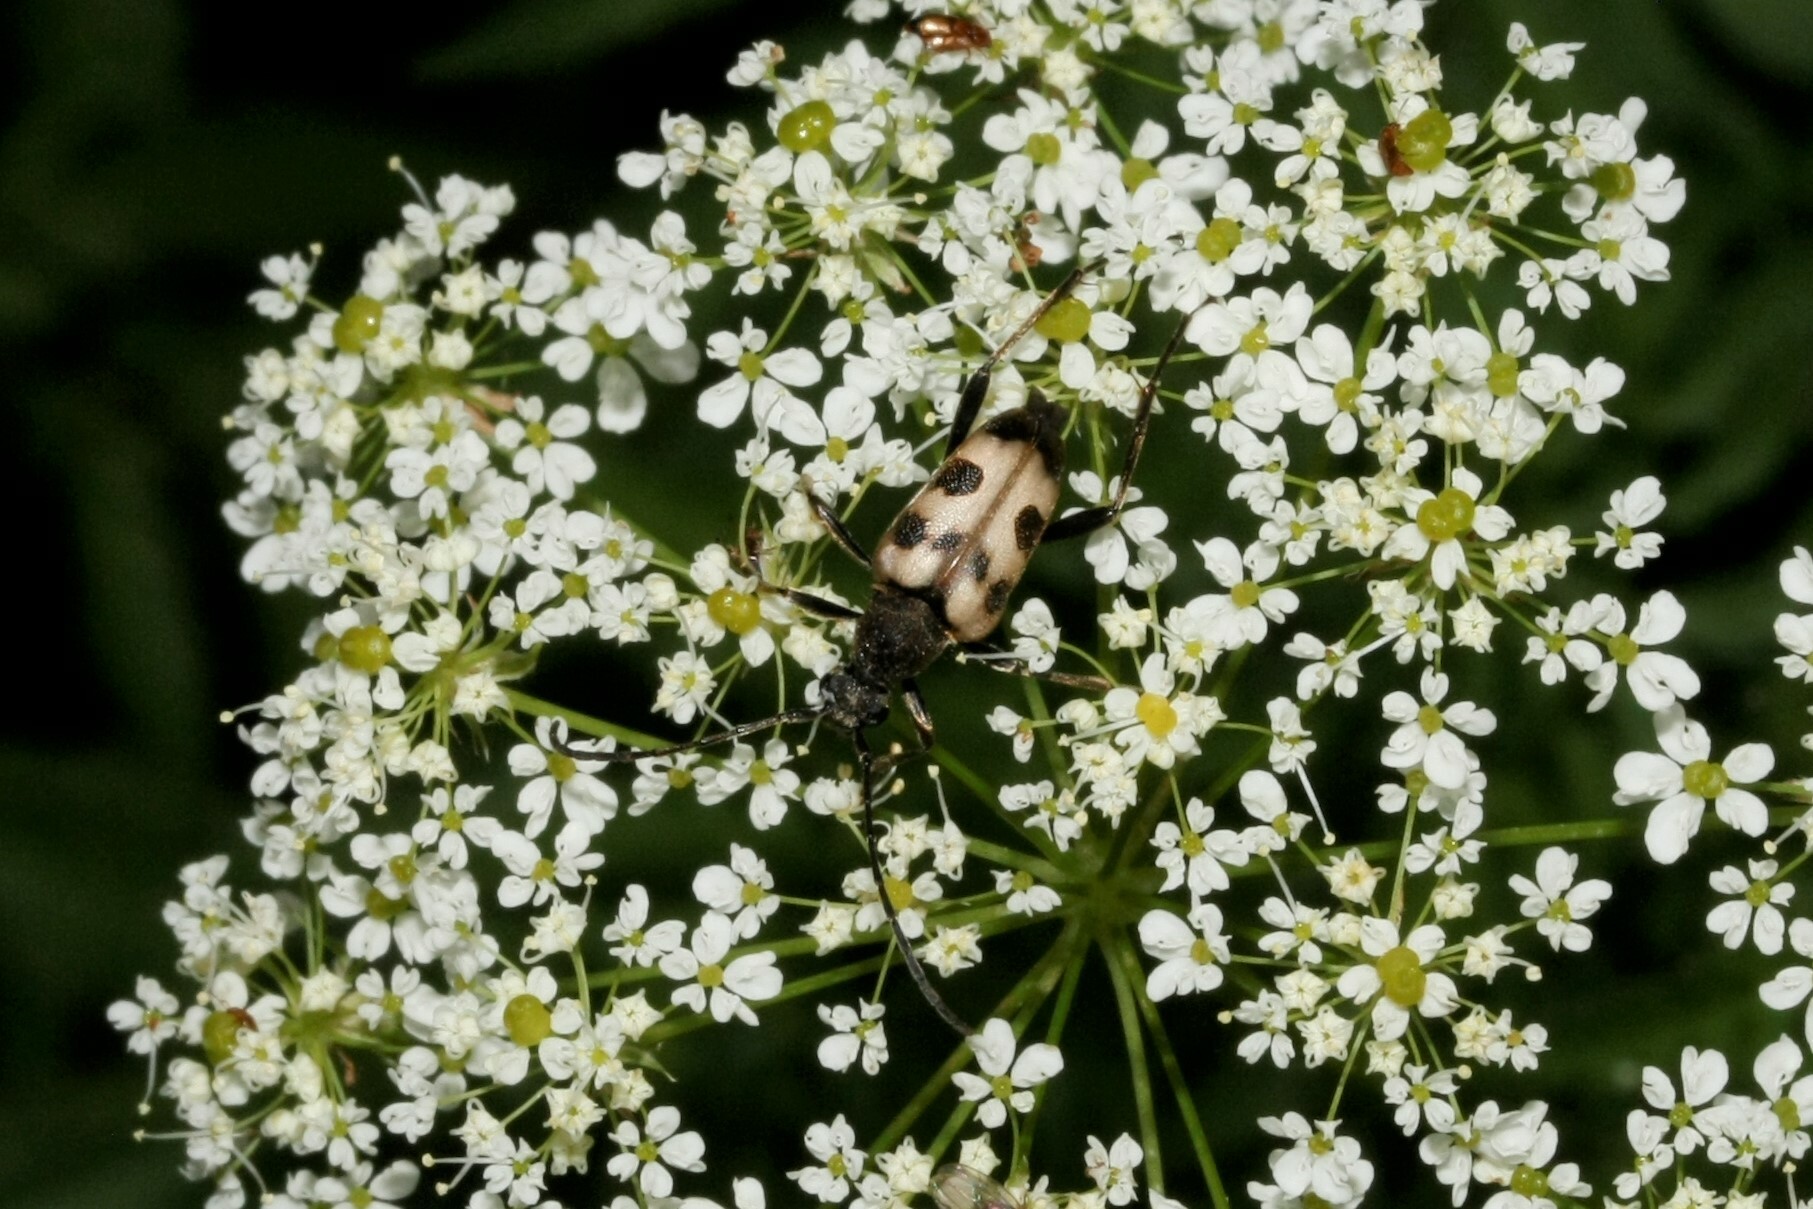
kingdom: Animalia
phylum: Arthropoda
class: Insecta
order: Coleoptera
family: Cerambycidae
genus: Pachytodes
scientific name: Pachytodes cerambyciformis
